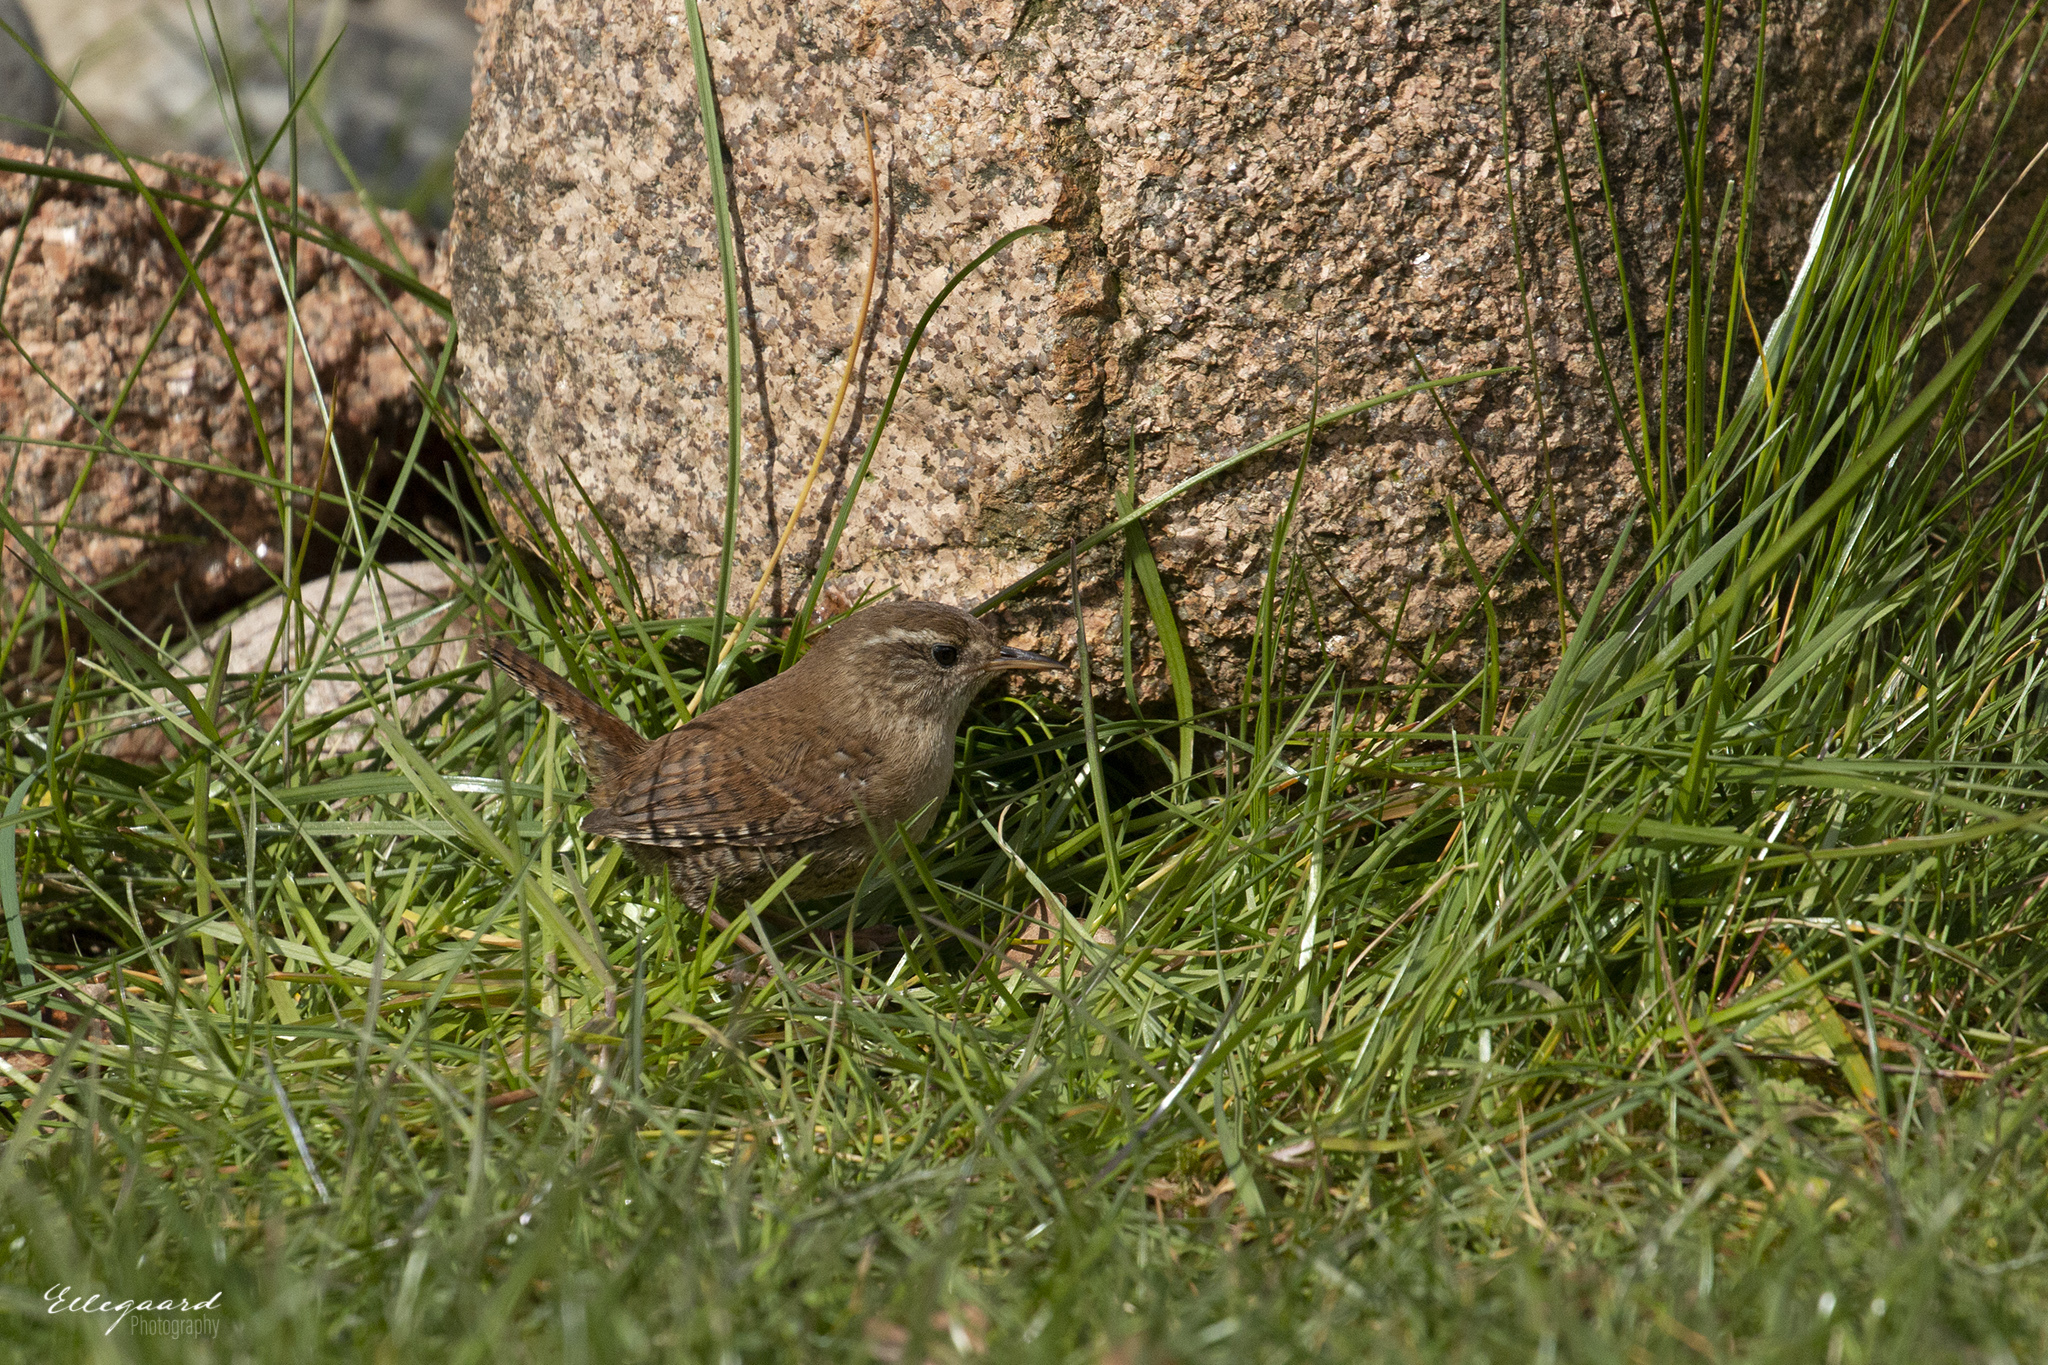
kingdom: Animalia
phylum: Chordata
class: Aves
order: Passeriformes
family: Troglodytidae
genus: Troglodytes
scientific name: Troglodytes troglodytes
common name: Eurasian wren
